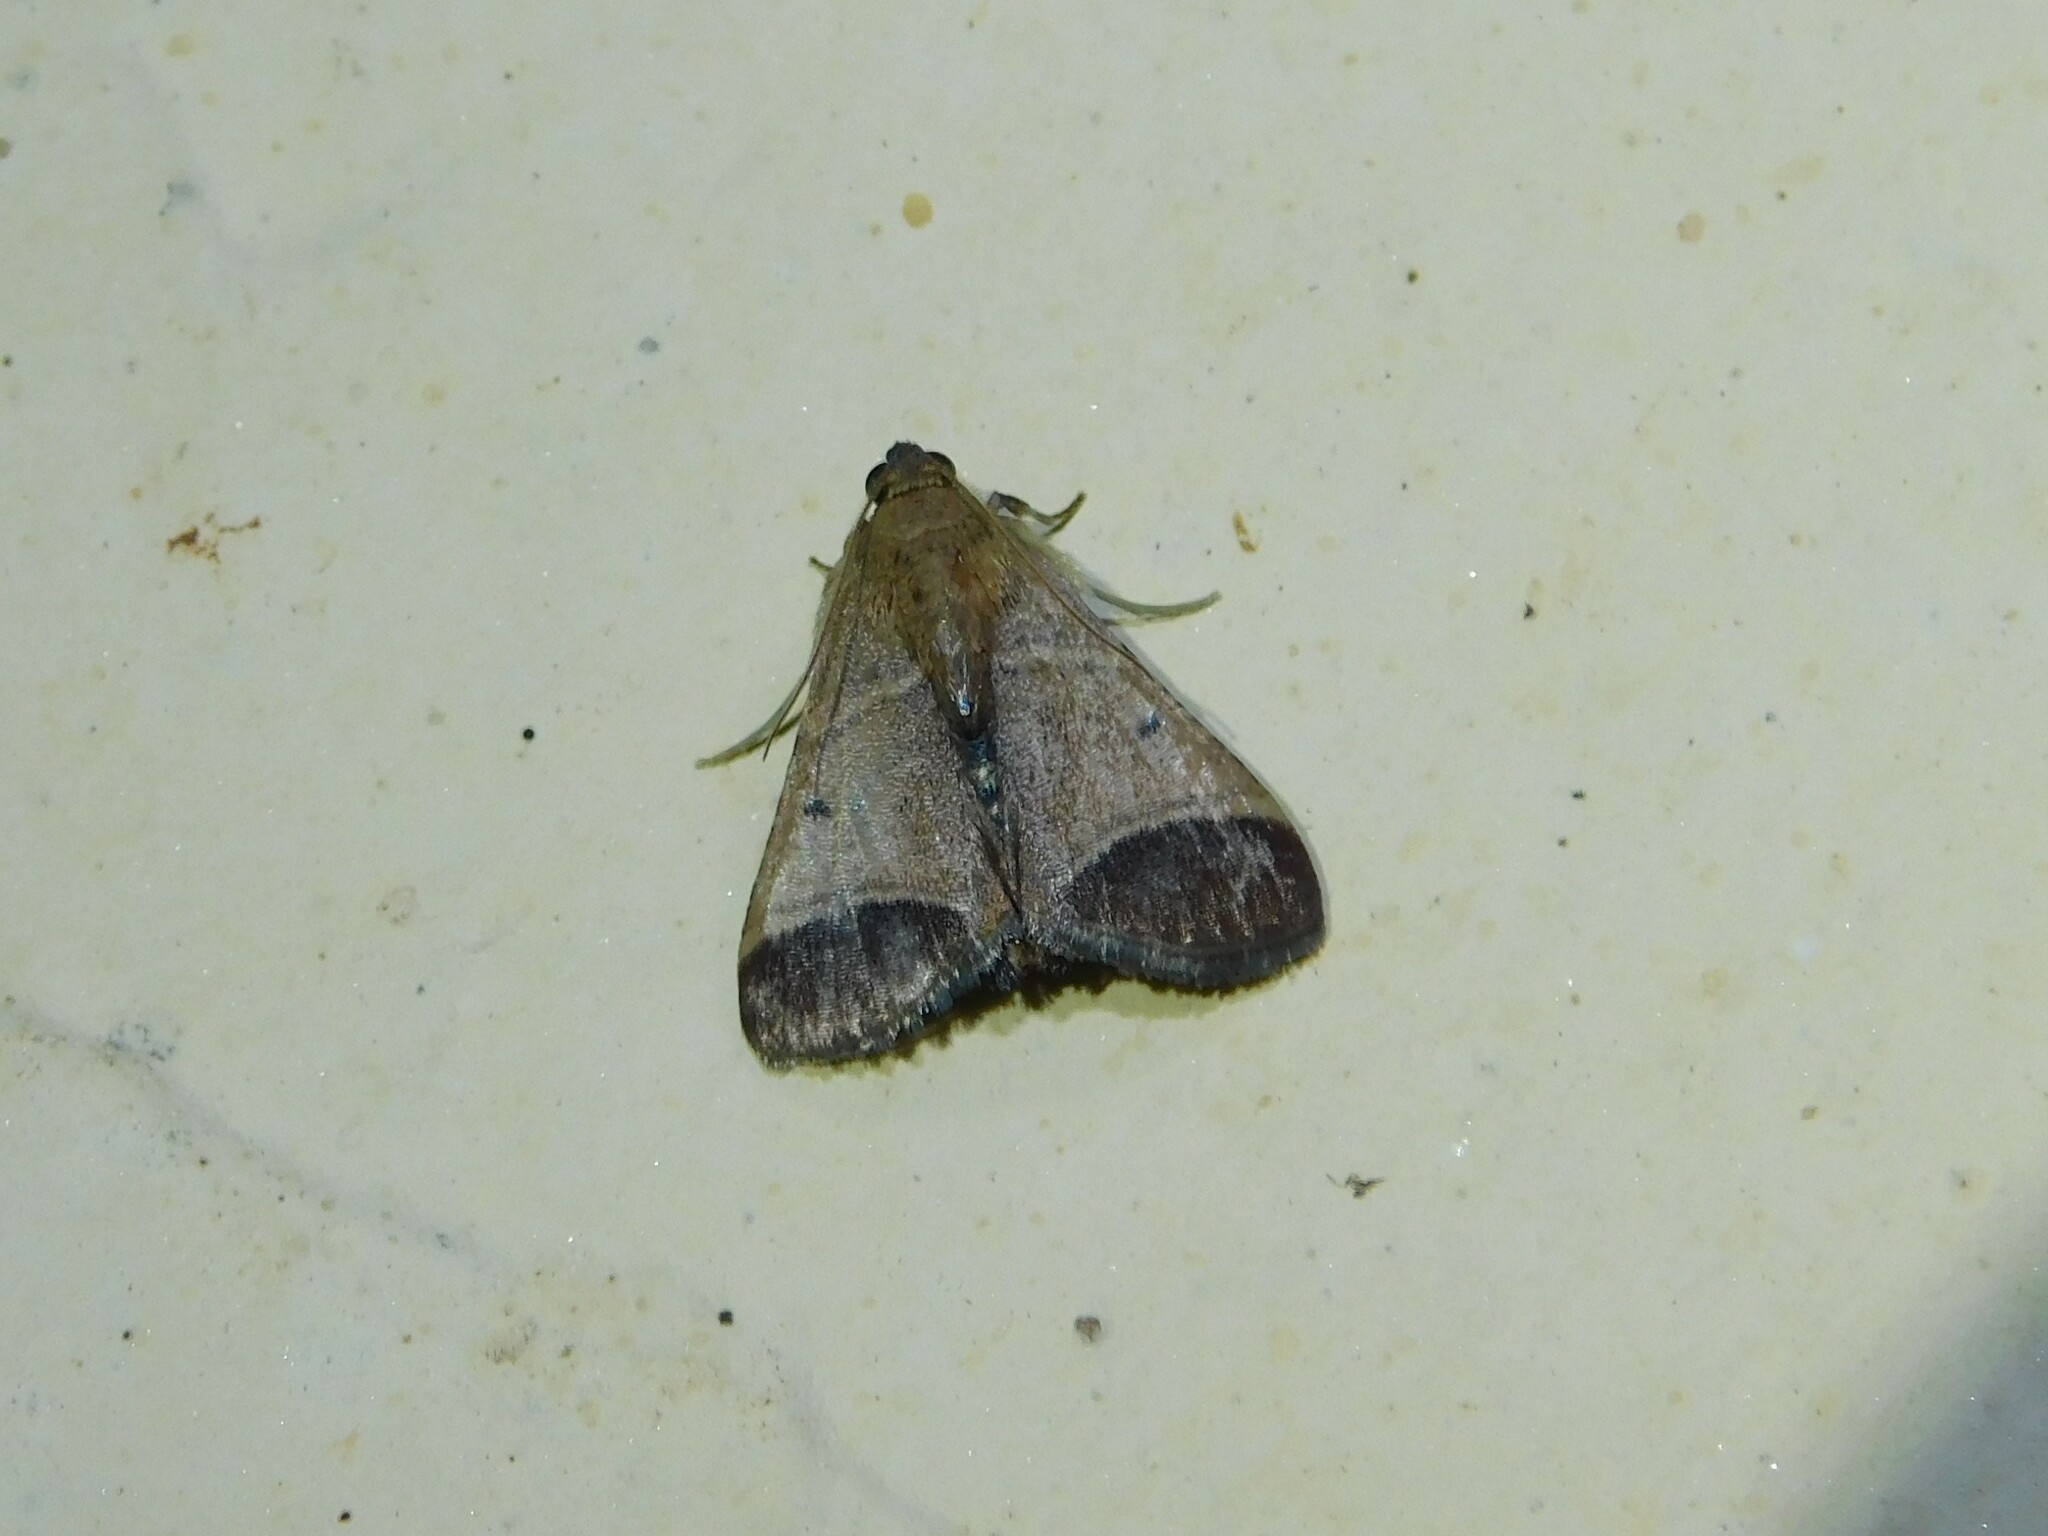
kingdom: Animalia
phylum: Arthropoda
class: Insecta
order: Lepidoptera
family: Pyralidae
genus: Tegulifera
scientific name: Tegulifera Sphalerosticha oblunata
